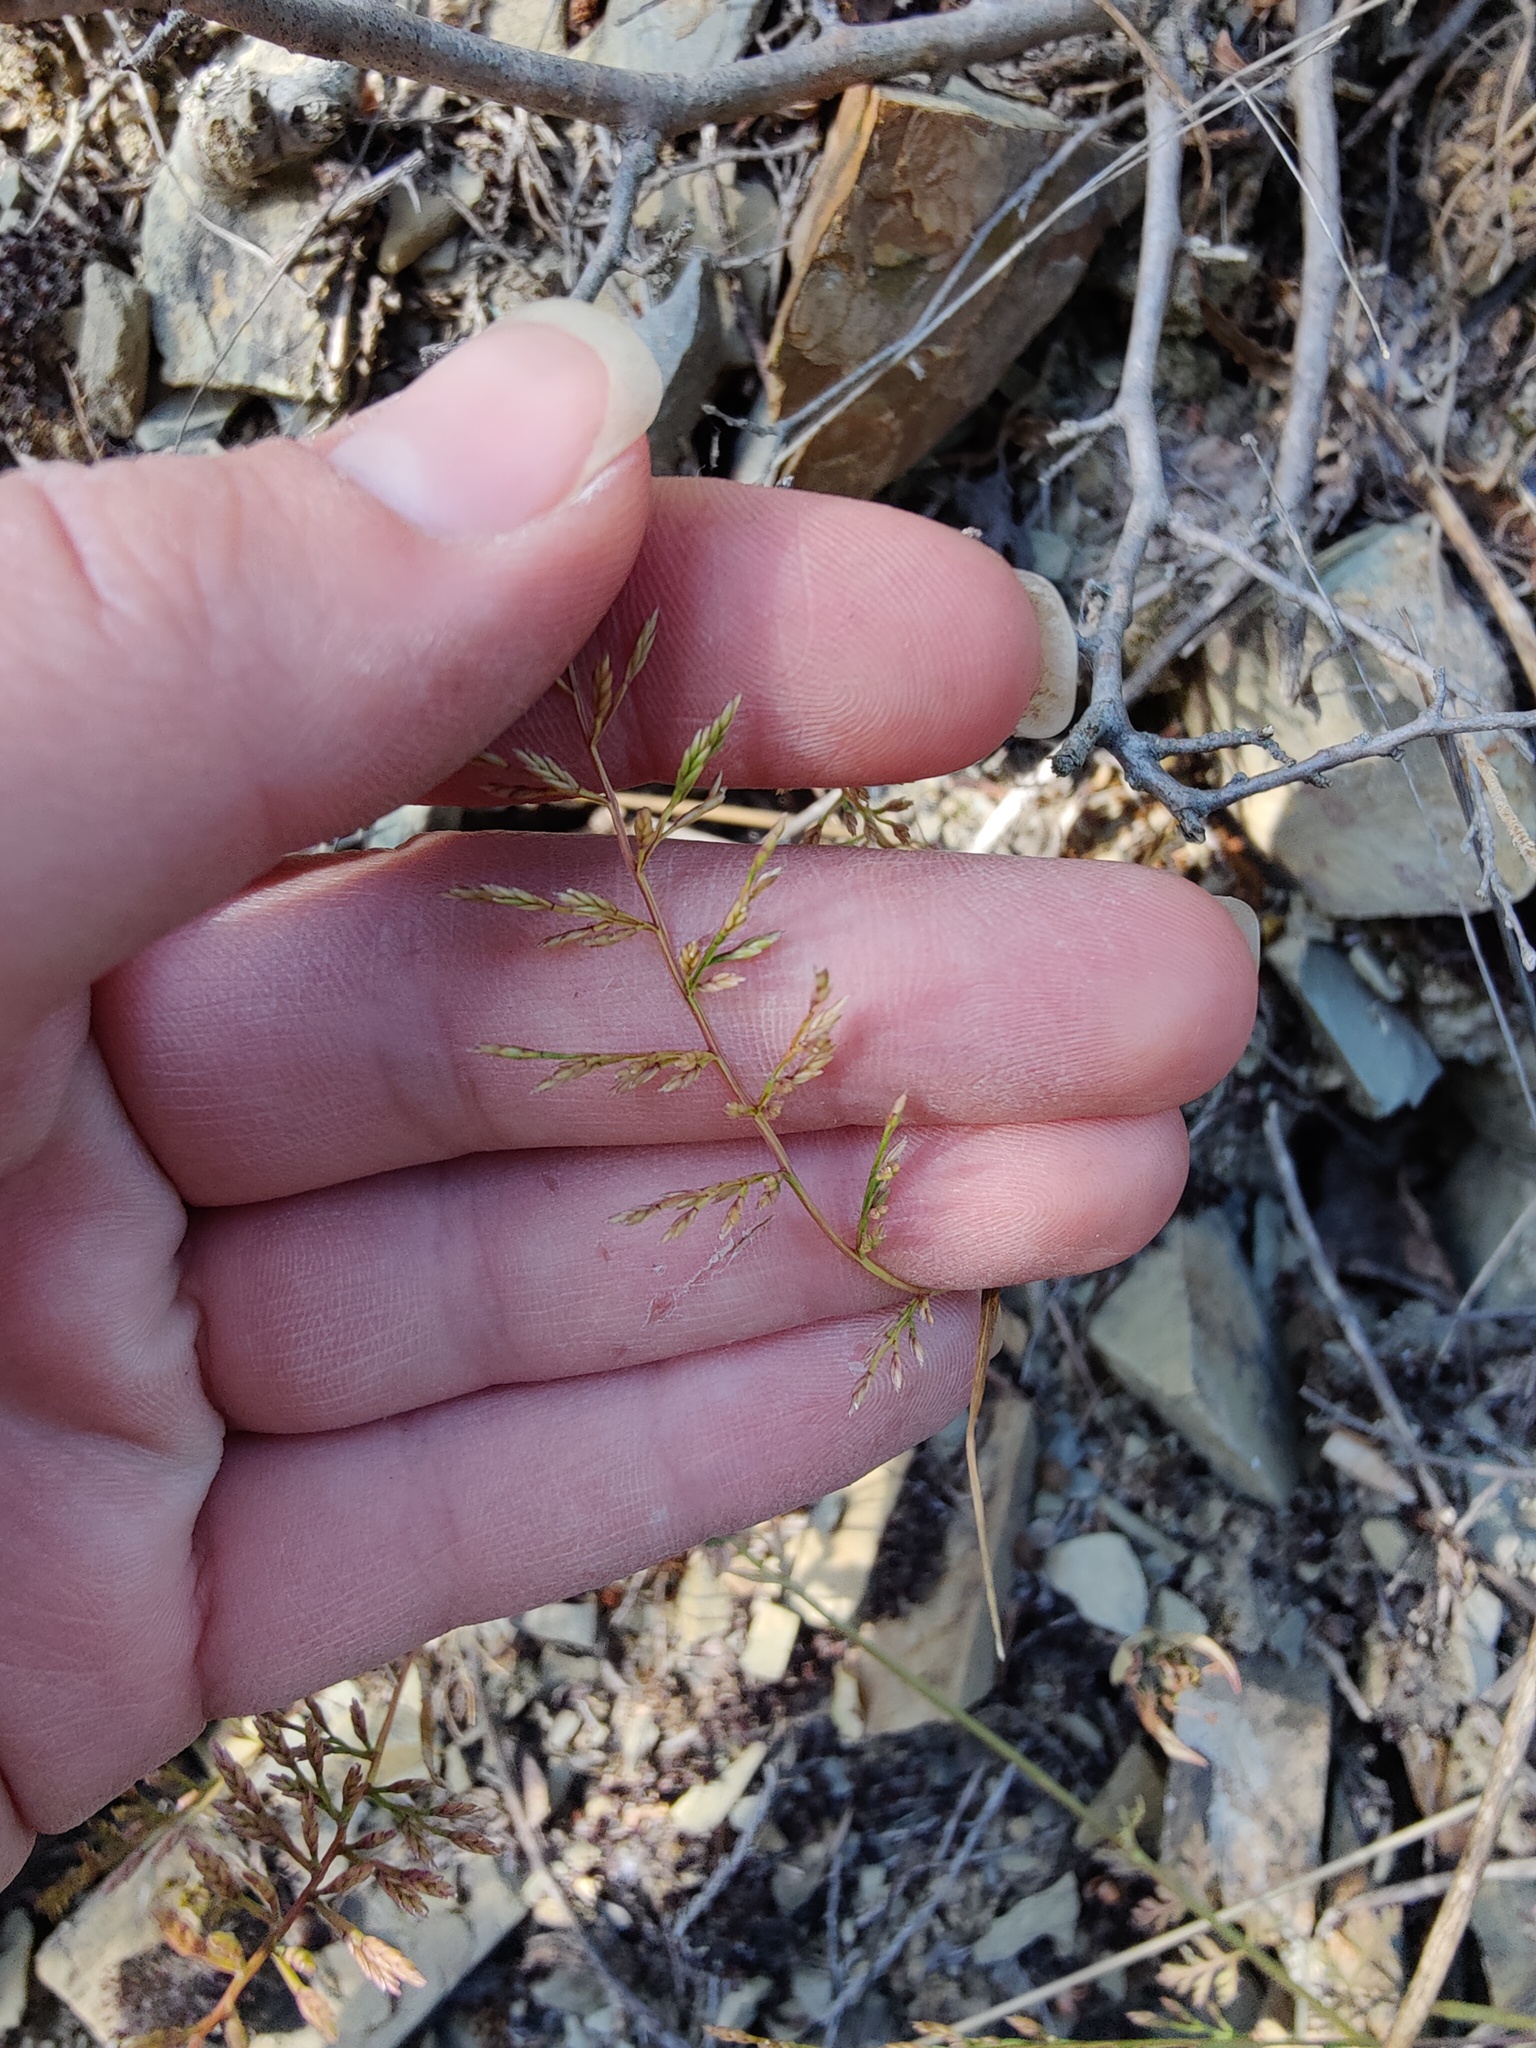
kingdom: Plantae
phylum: Tracheophyta
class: Liliopsida
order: Poales
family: Poaceae
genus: Catapodium
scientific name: Catapodium rigidum
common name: Fern-grass
